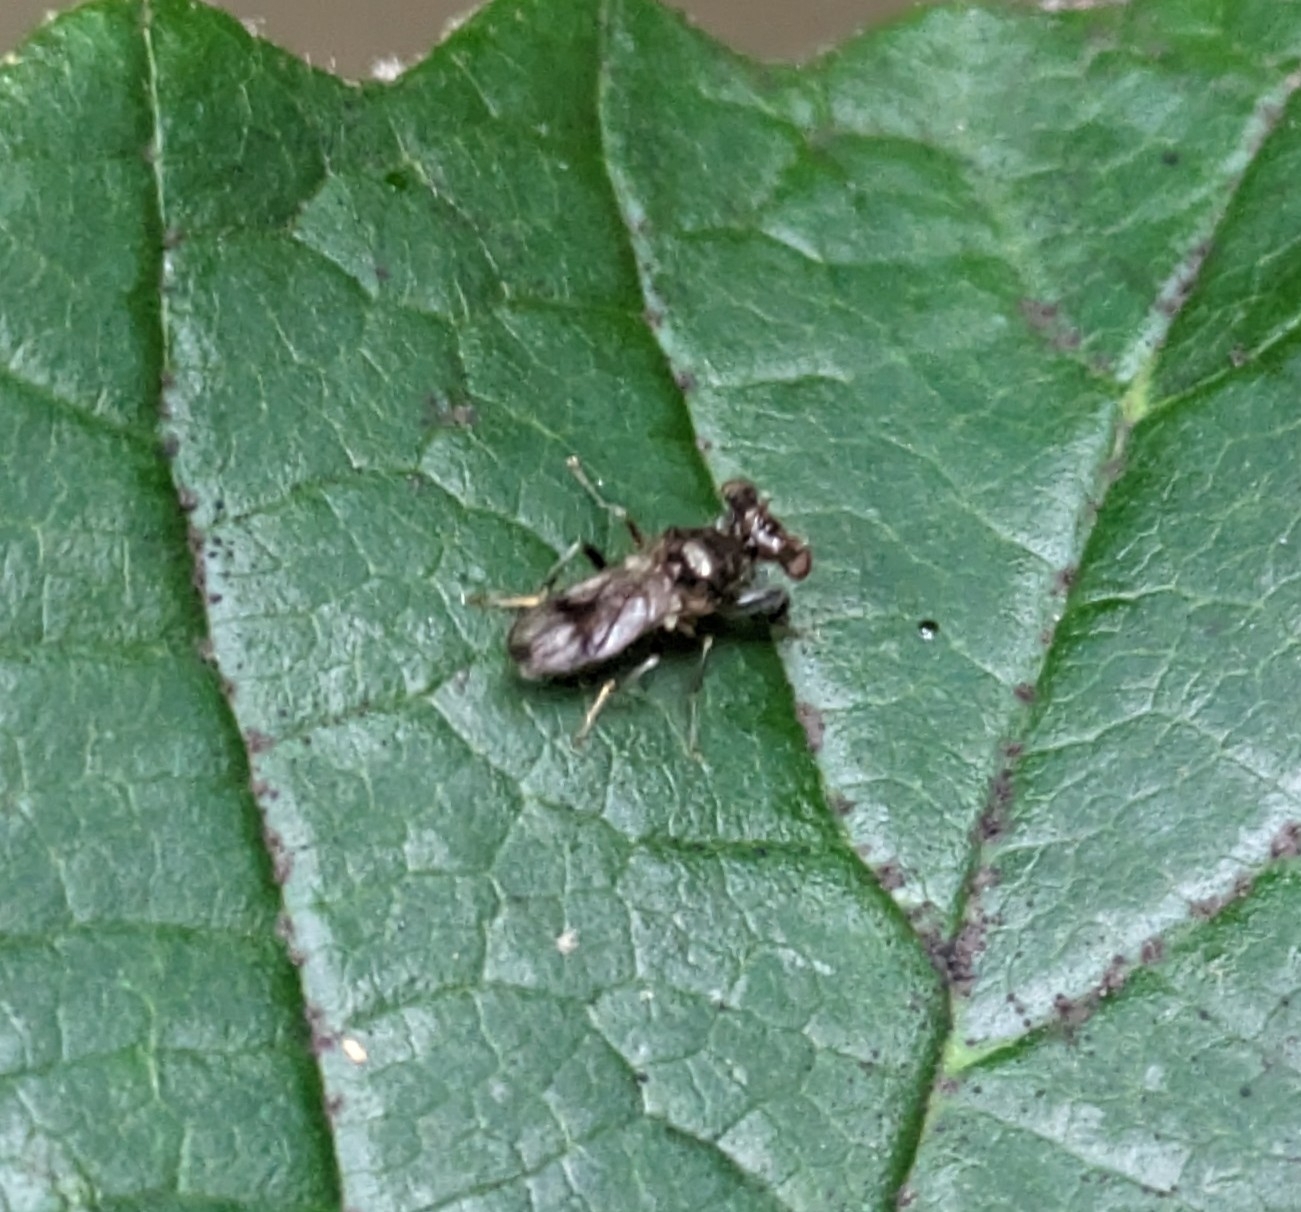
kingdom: Animalia
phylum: Arthropoda
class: Insecta
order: Diptera
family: Diopsidae
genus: Sphyracephala
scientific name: Sphyracephala brevicornis
